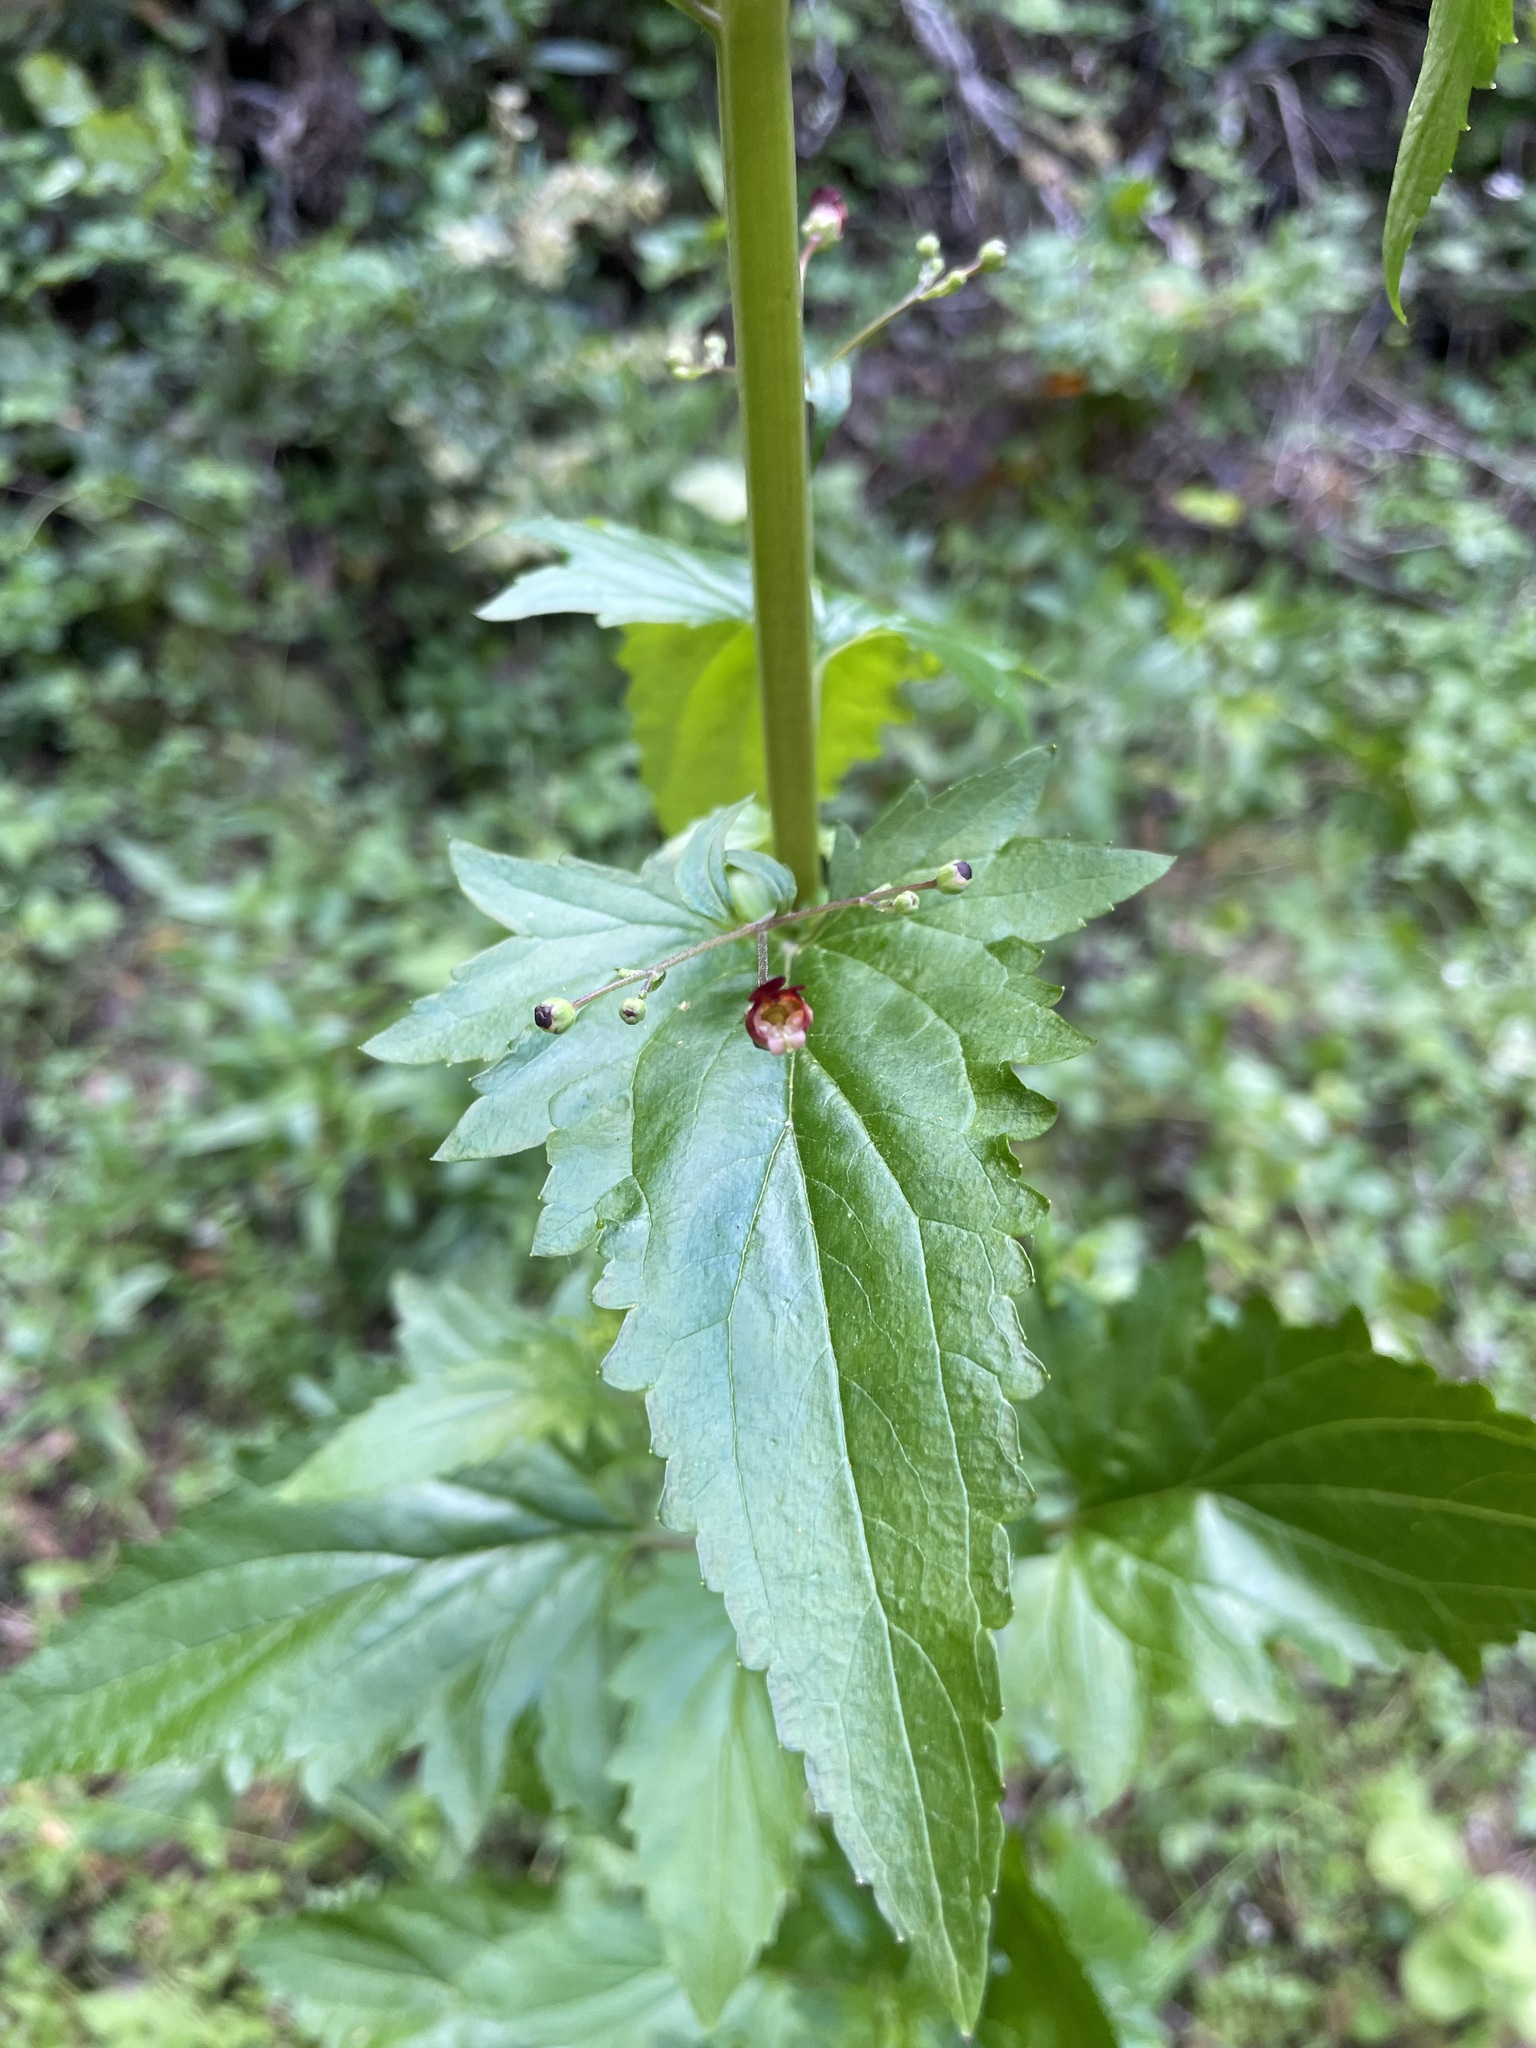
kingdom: Plantae
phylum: Tracheophyta
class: Magnoliopsida
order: Lamiales
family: Scrophulariaceae
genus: Scrophularia
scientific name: Scrophularia californica
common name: California figwort
